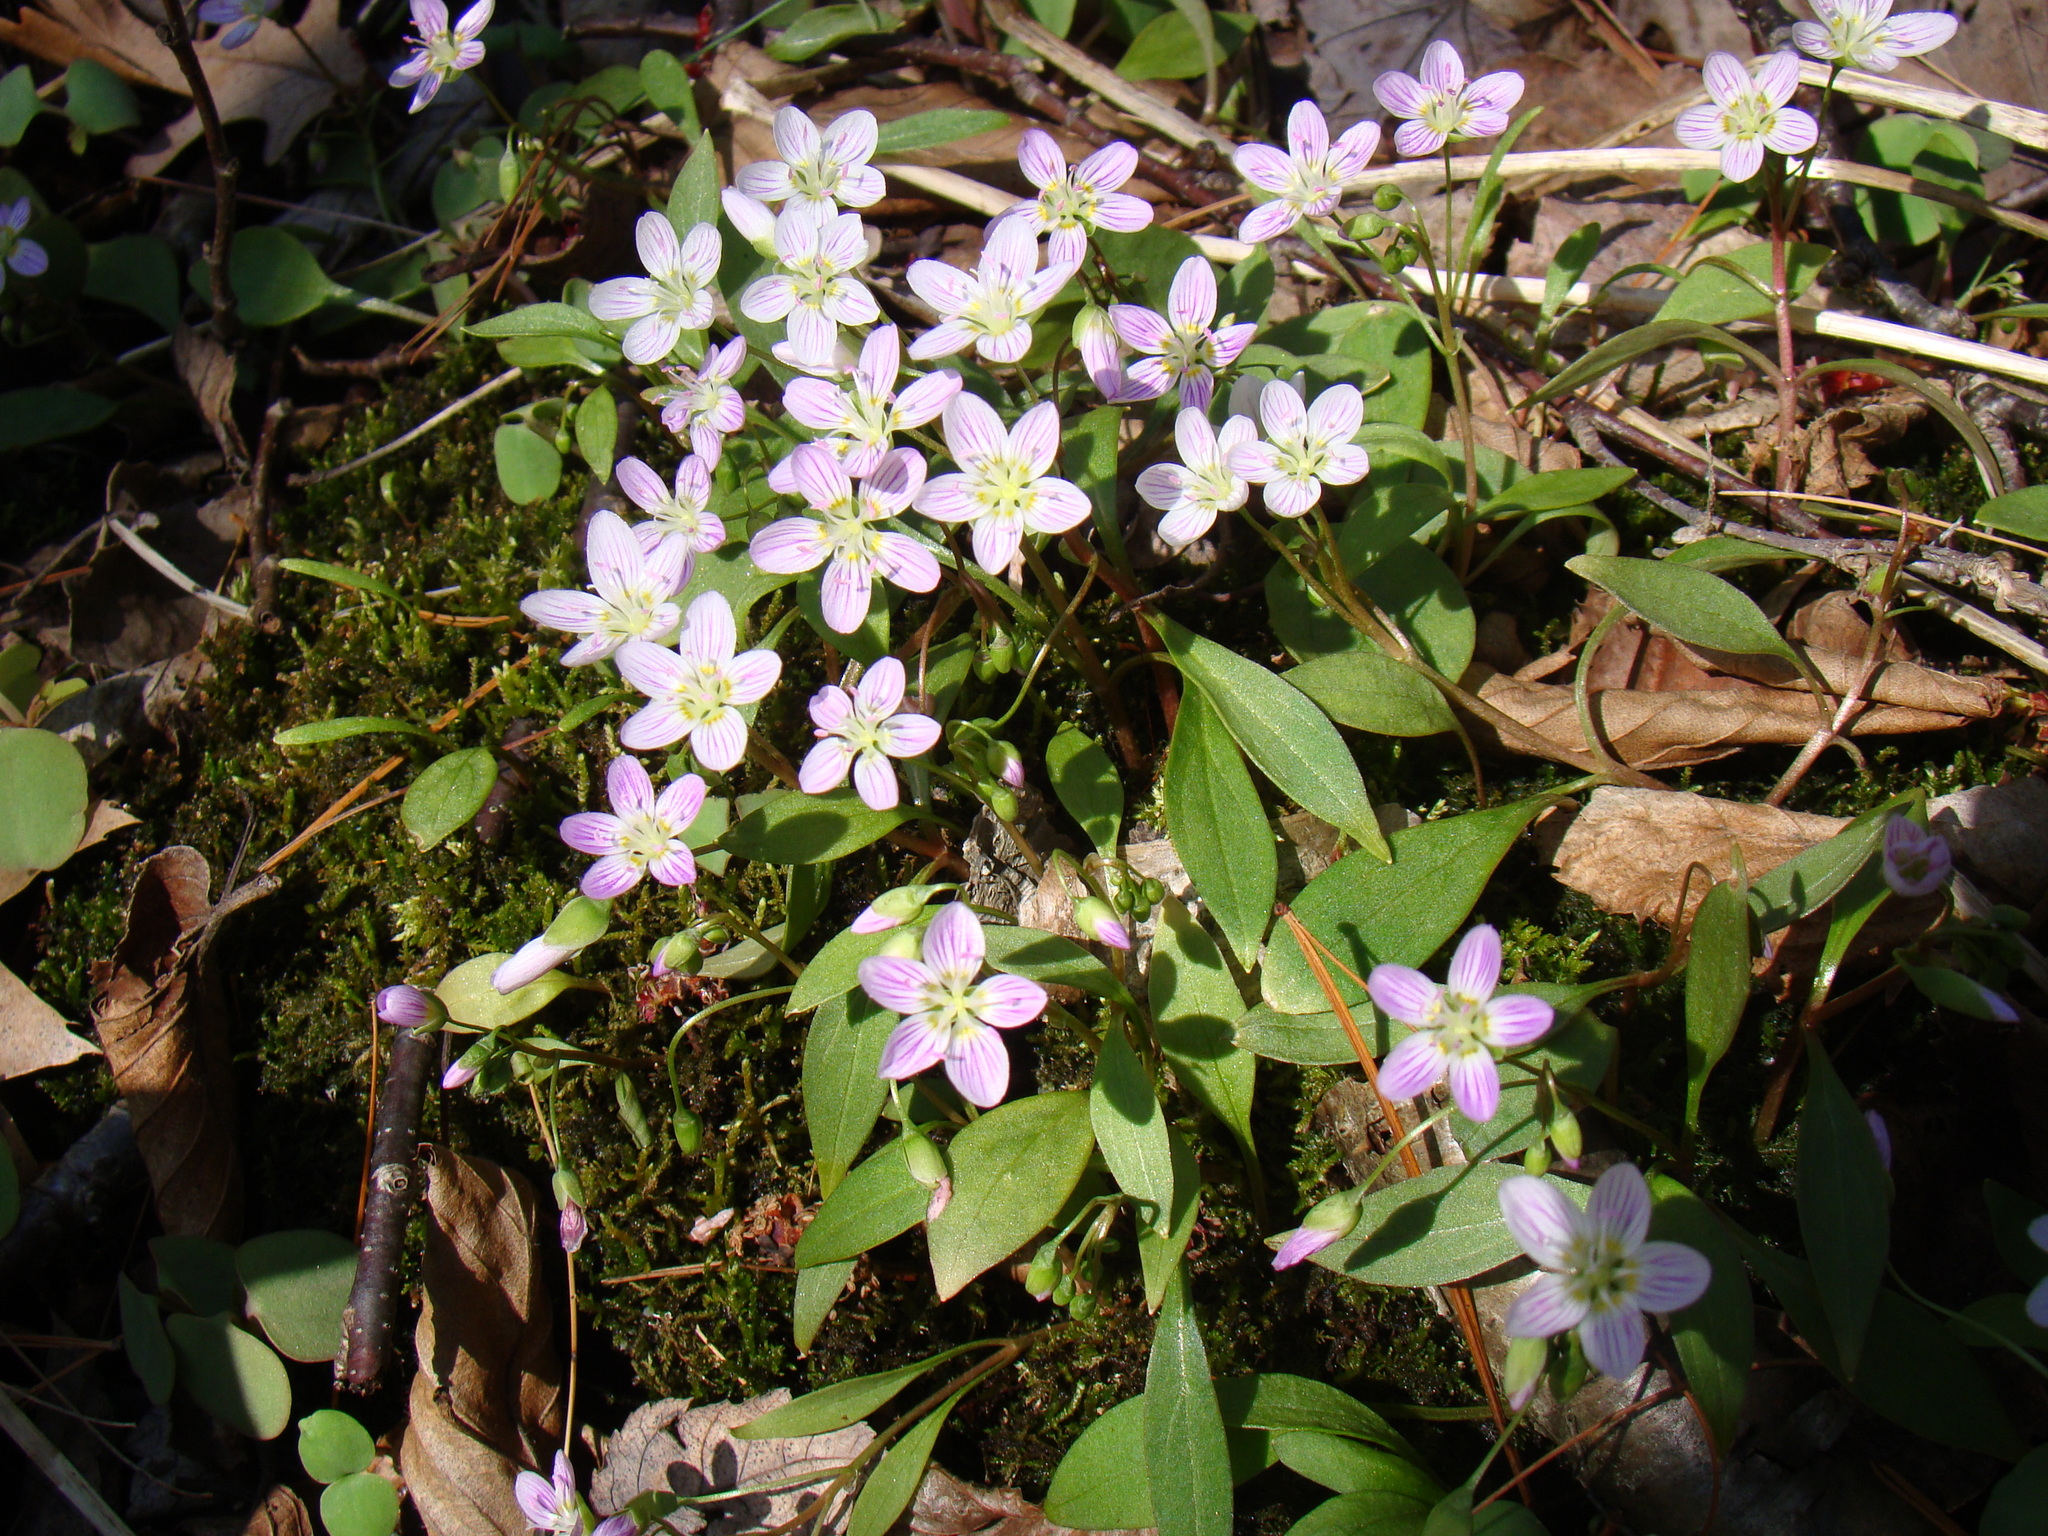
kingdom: Plantae
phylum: Tracheophyta
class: Magnoliopsida
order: Caryophyllales
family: Montiaceae
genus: Claytonia
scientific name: Claytonia caroliniana
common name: Carolina spring beauty
